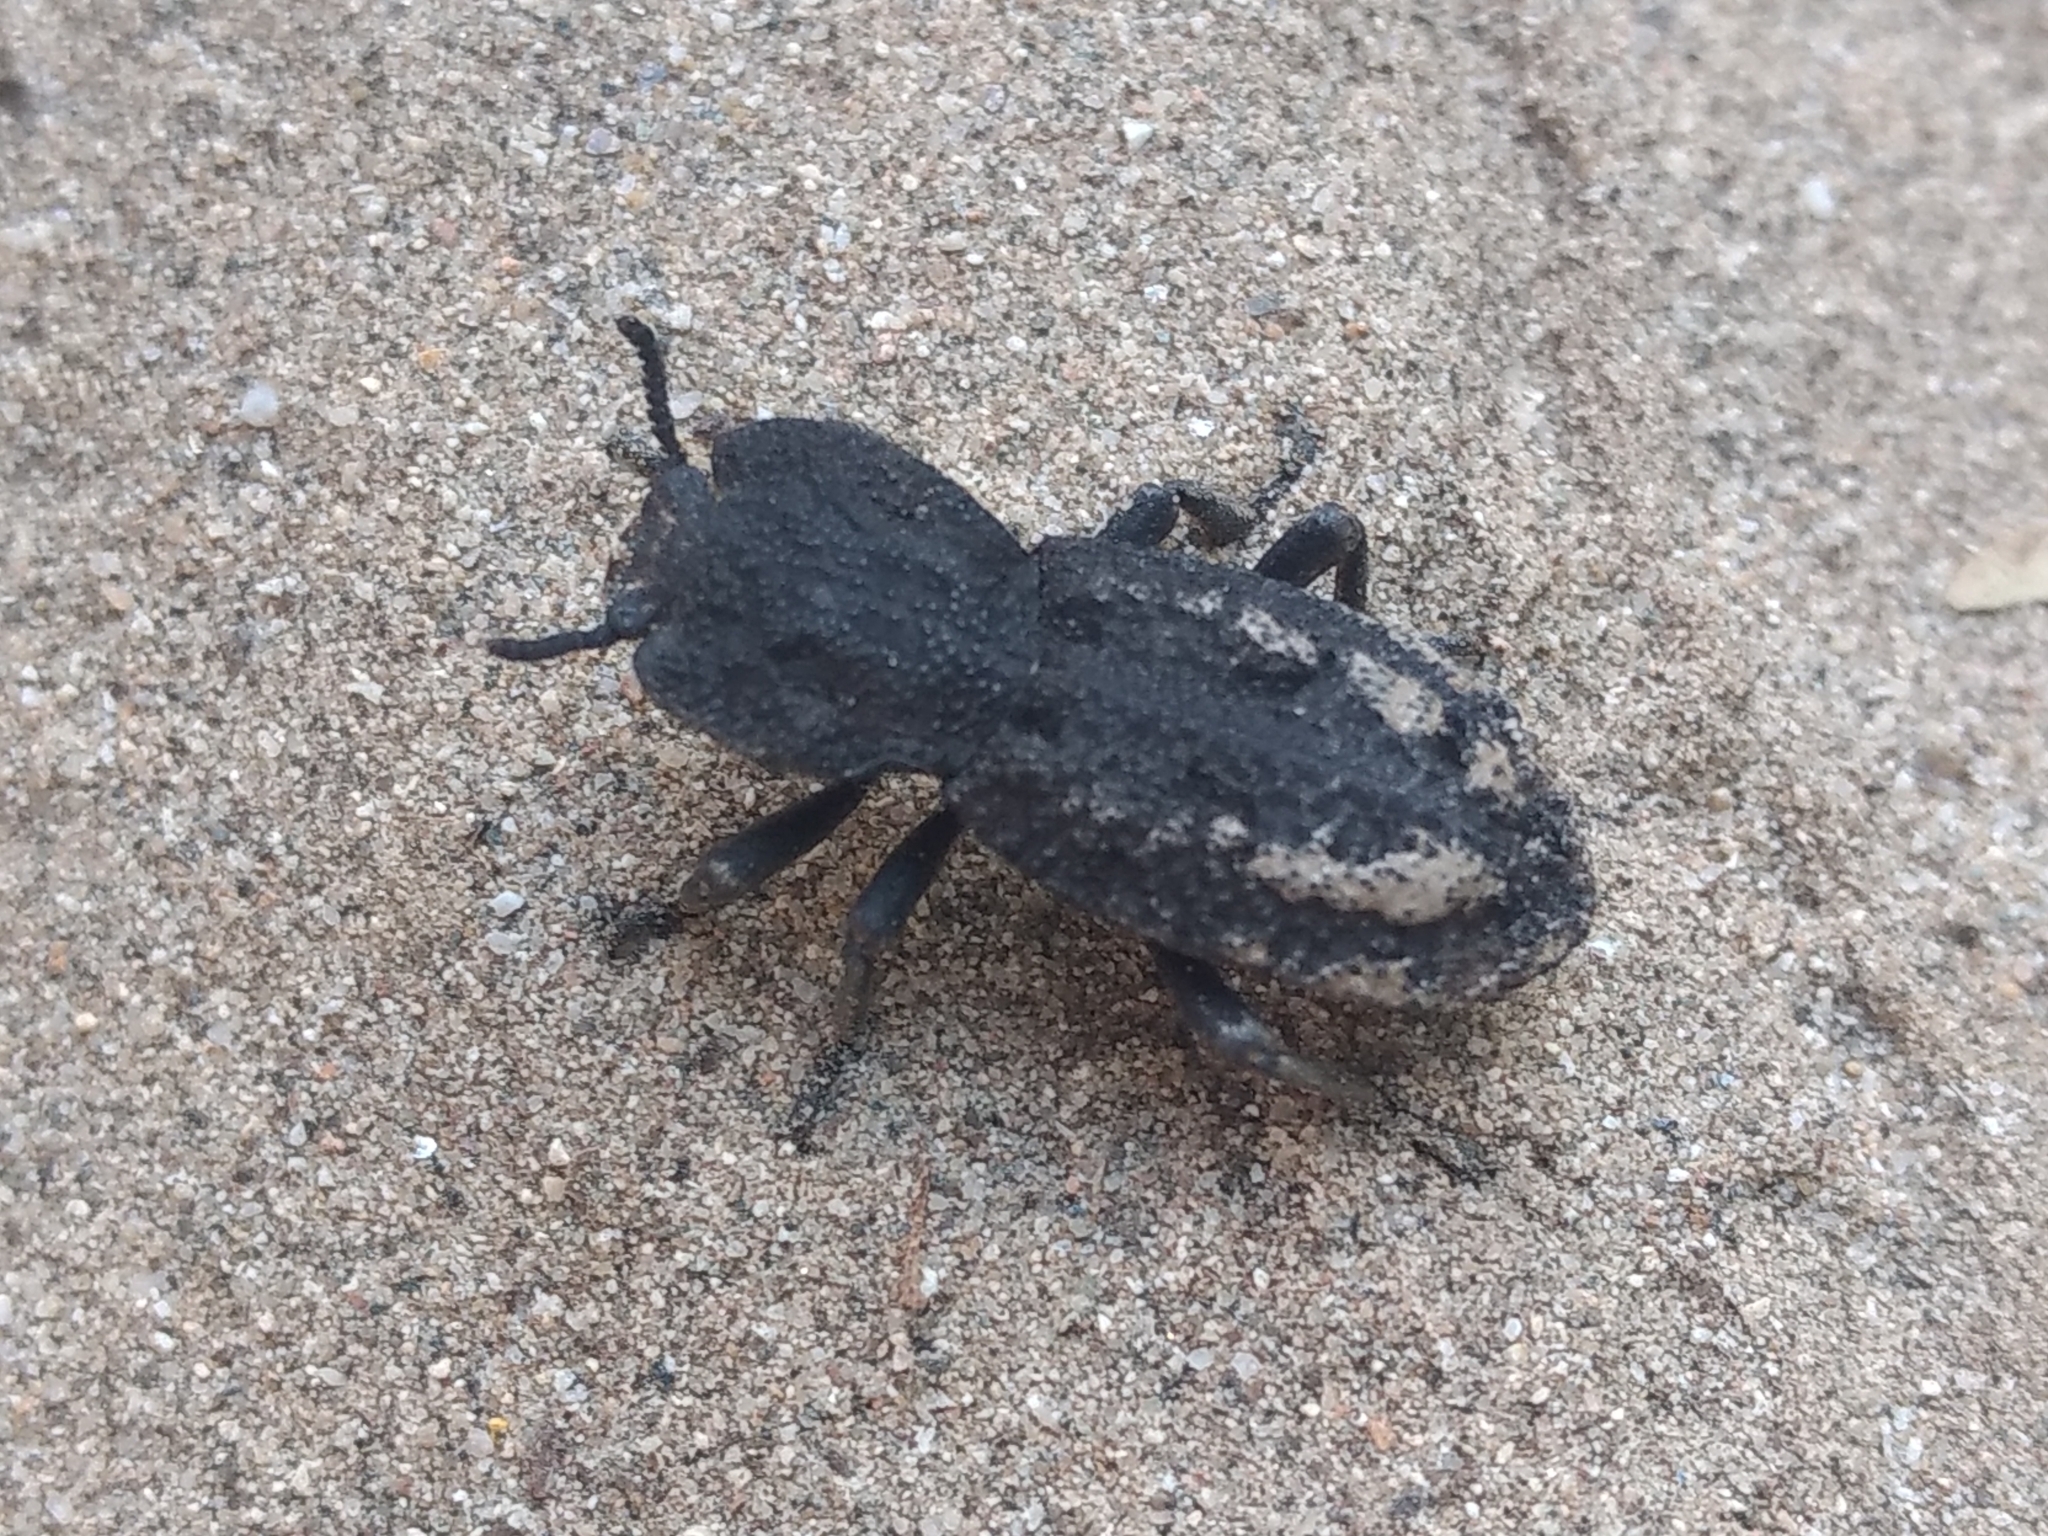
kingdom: Animalia
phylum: Arthropoda
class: Insecta
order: Coleoptera
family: Zopheridae
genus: Phloeodes
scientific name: Phloeodes diabolicus
